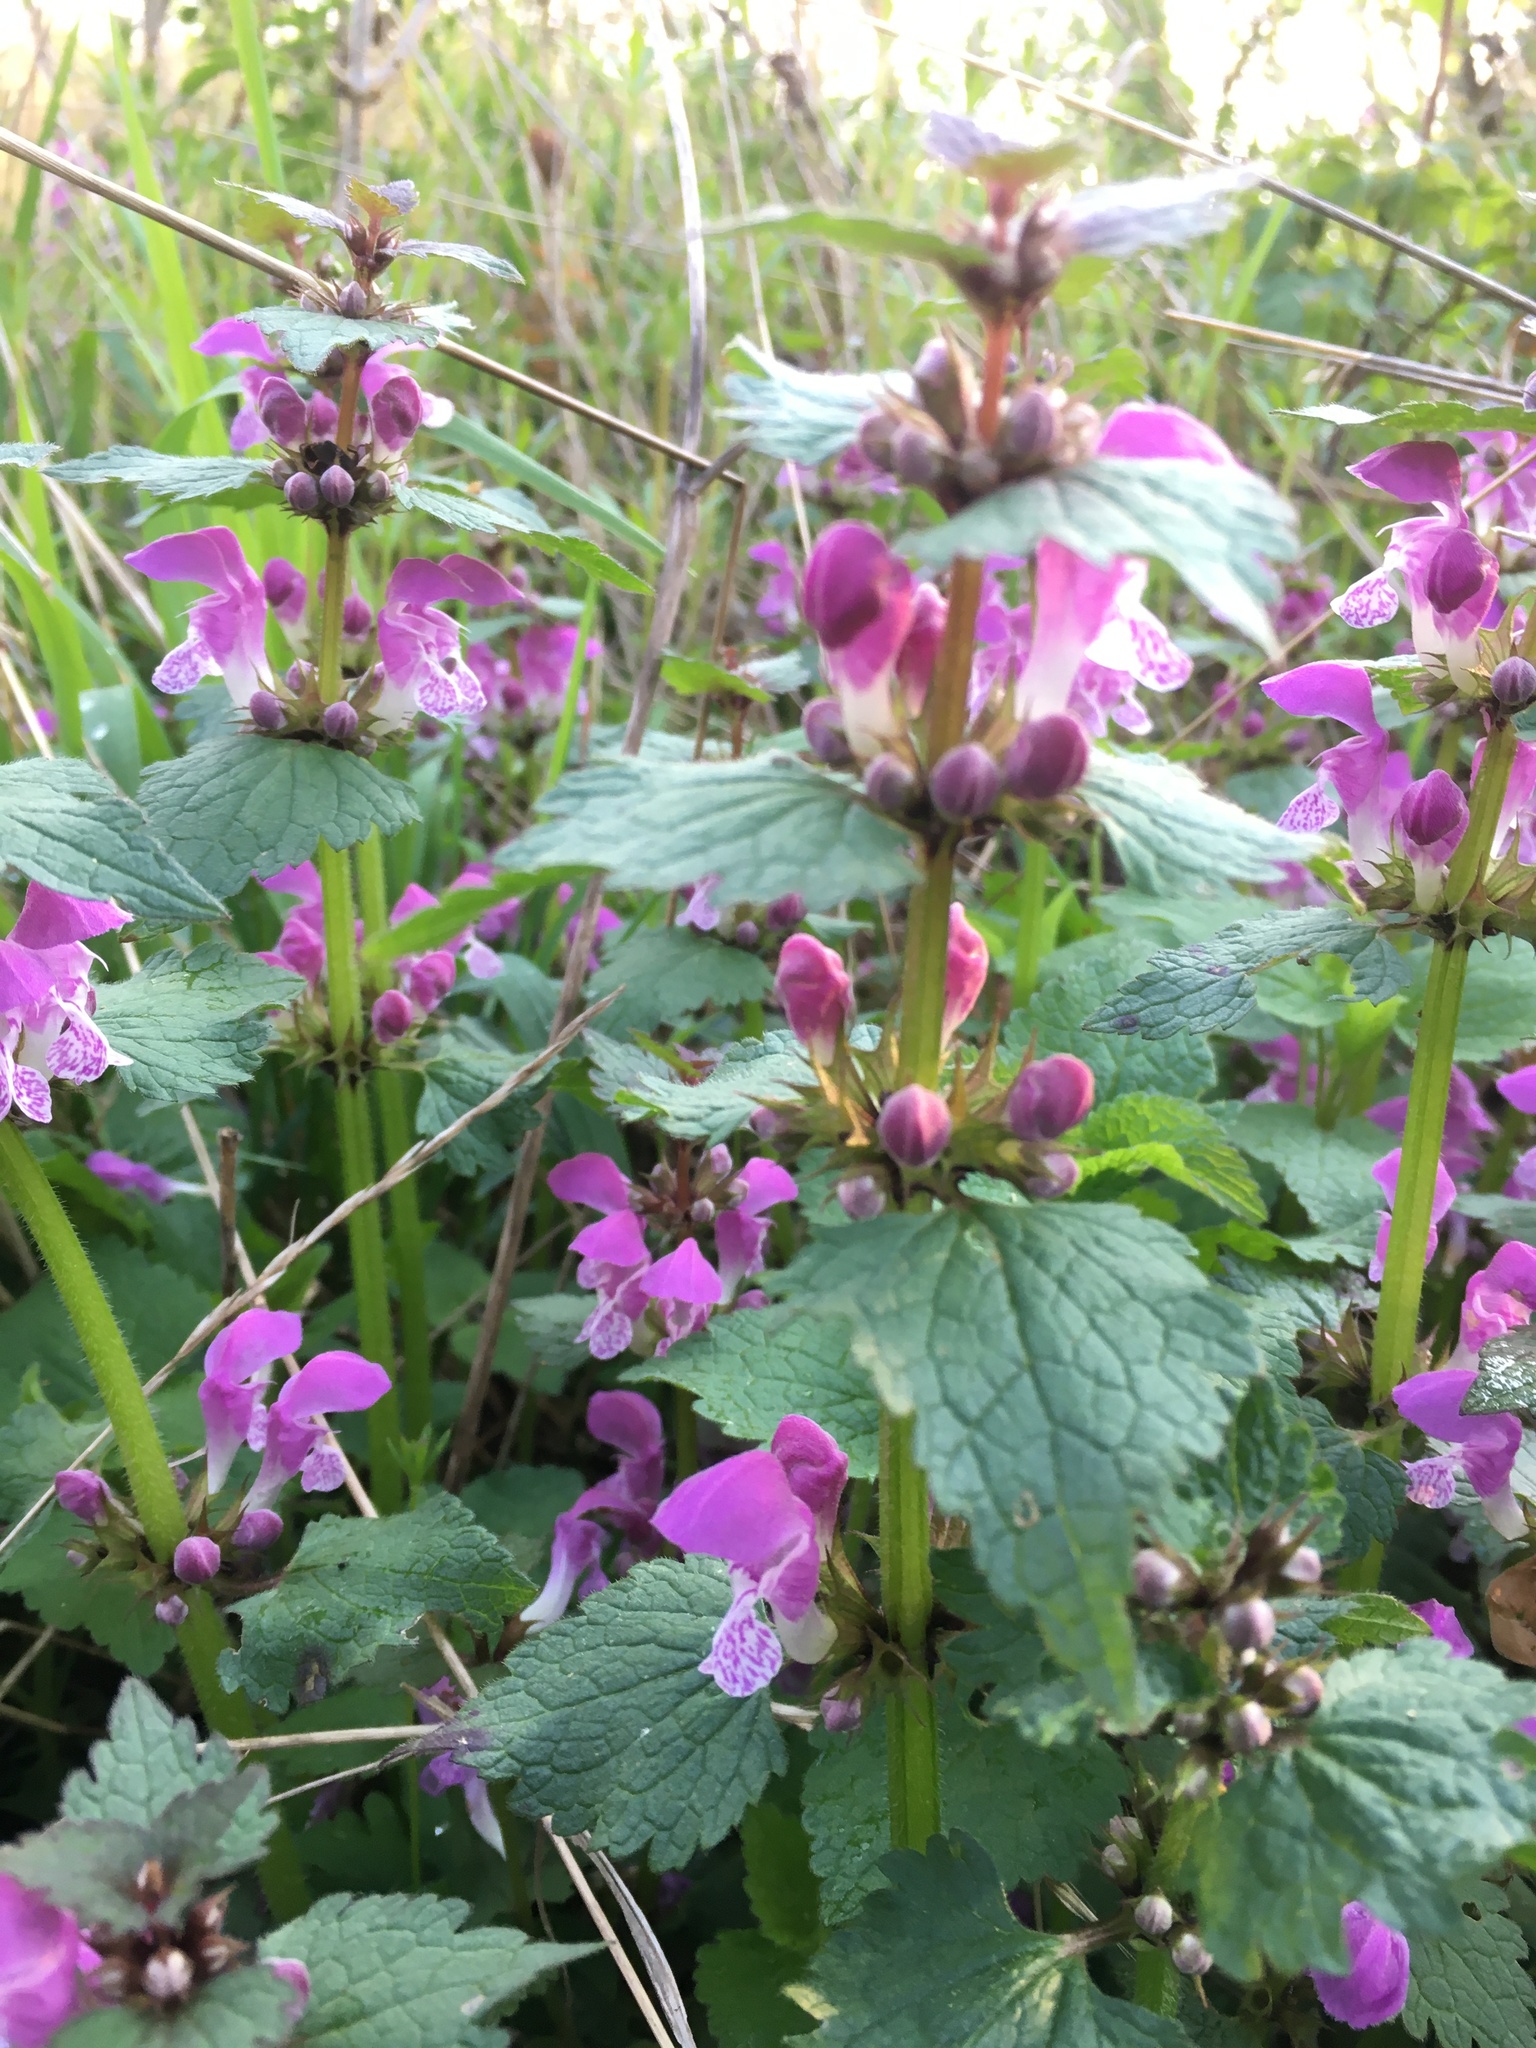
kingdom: Plantae
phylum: Tracheophyta
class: Magnoliopsida
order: Lamiales
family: Lamiaceae
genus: Lamium
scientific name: Lamium maculatum
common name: Spotted dead-nettle
